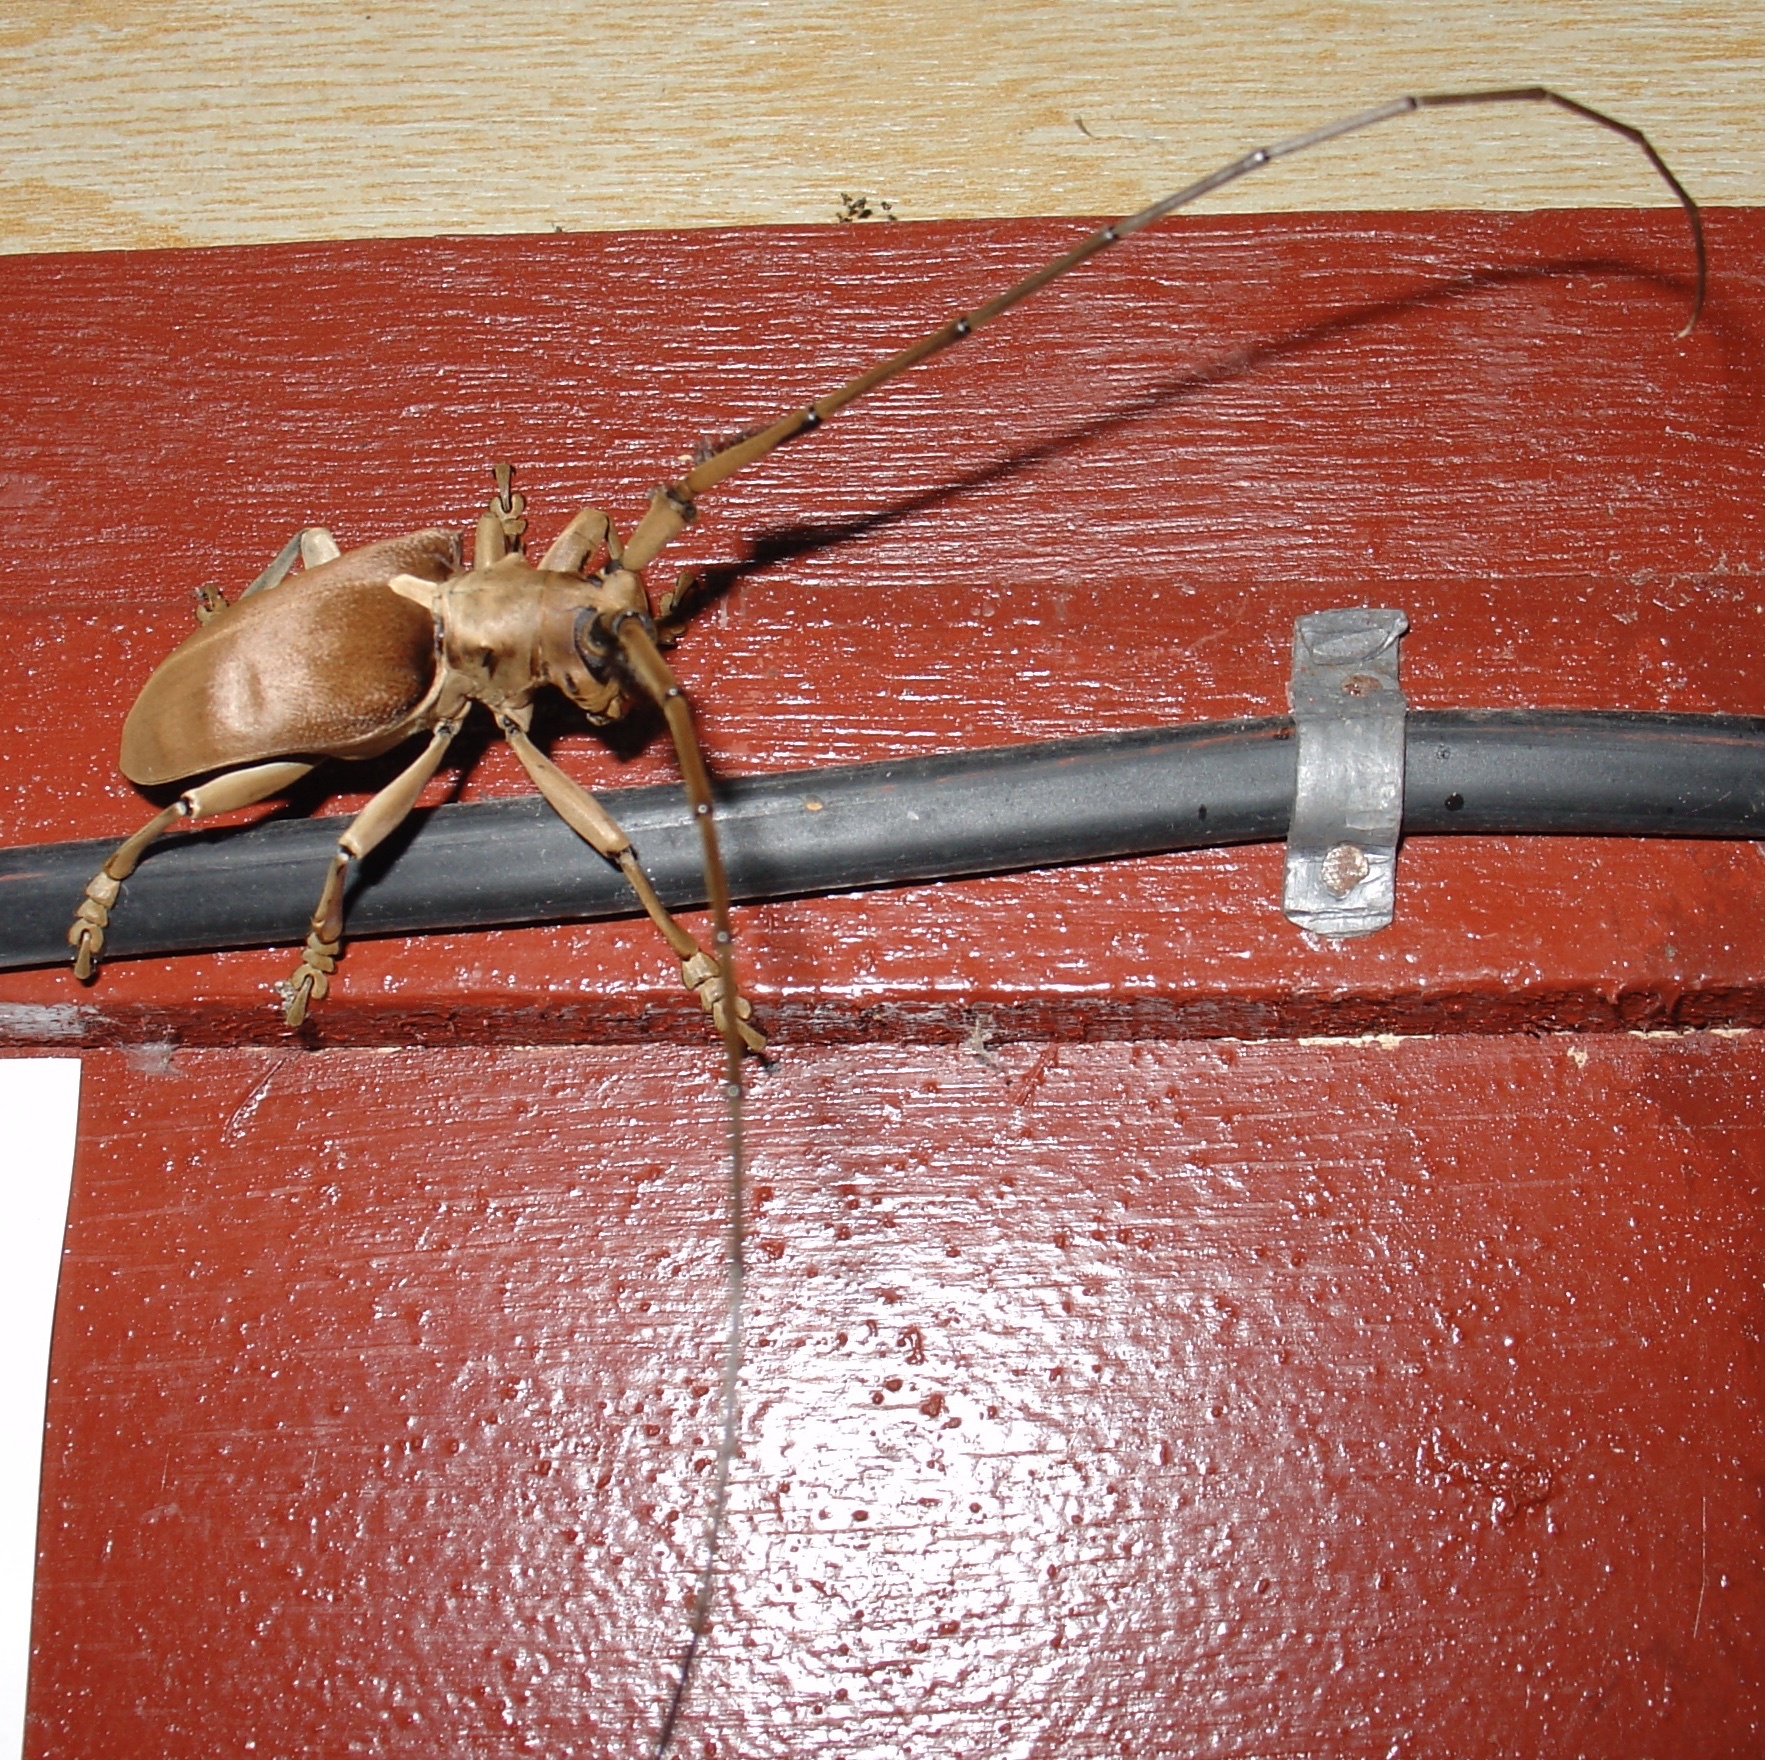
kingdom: Animalia
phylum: Arthropoda
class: Insecta
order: Coleoptera
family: Cerambycidae
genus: Sarothrocera
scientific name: Sarothrocera lowii
